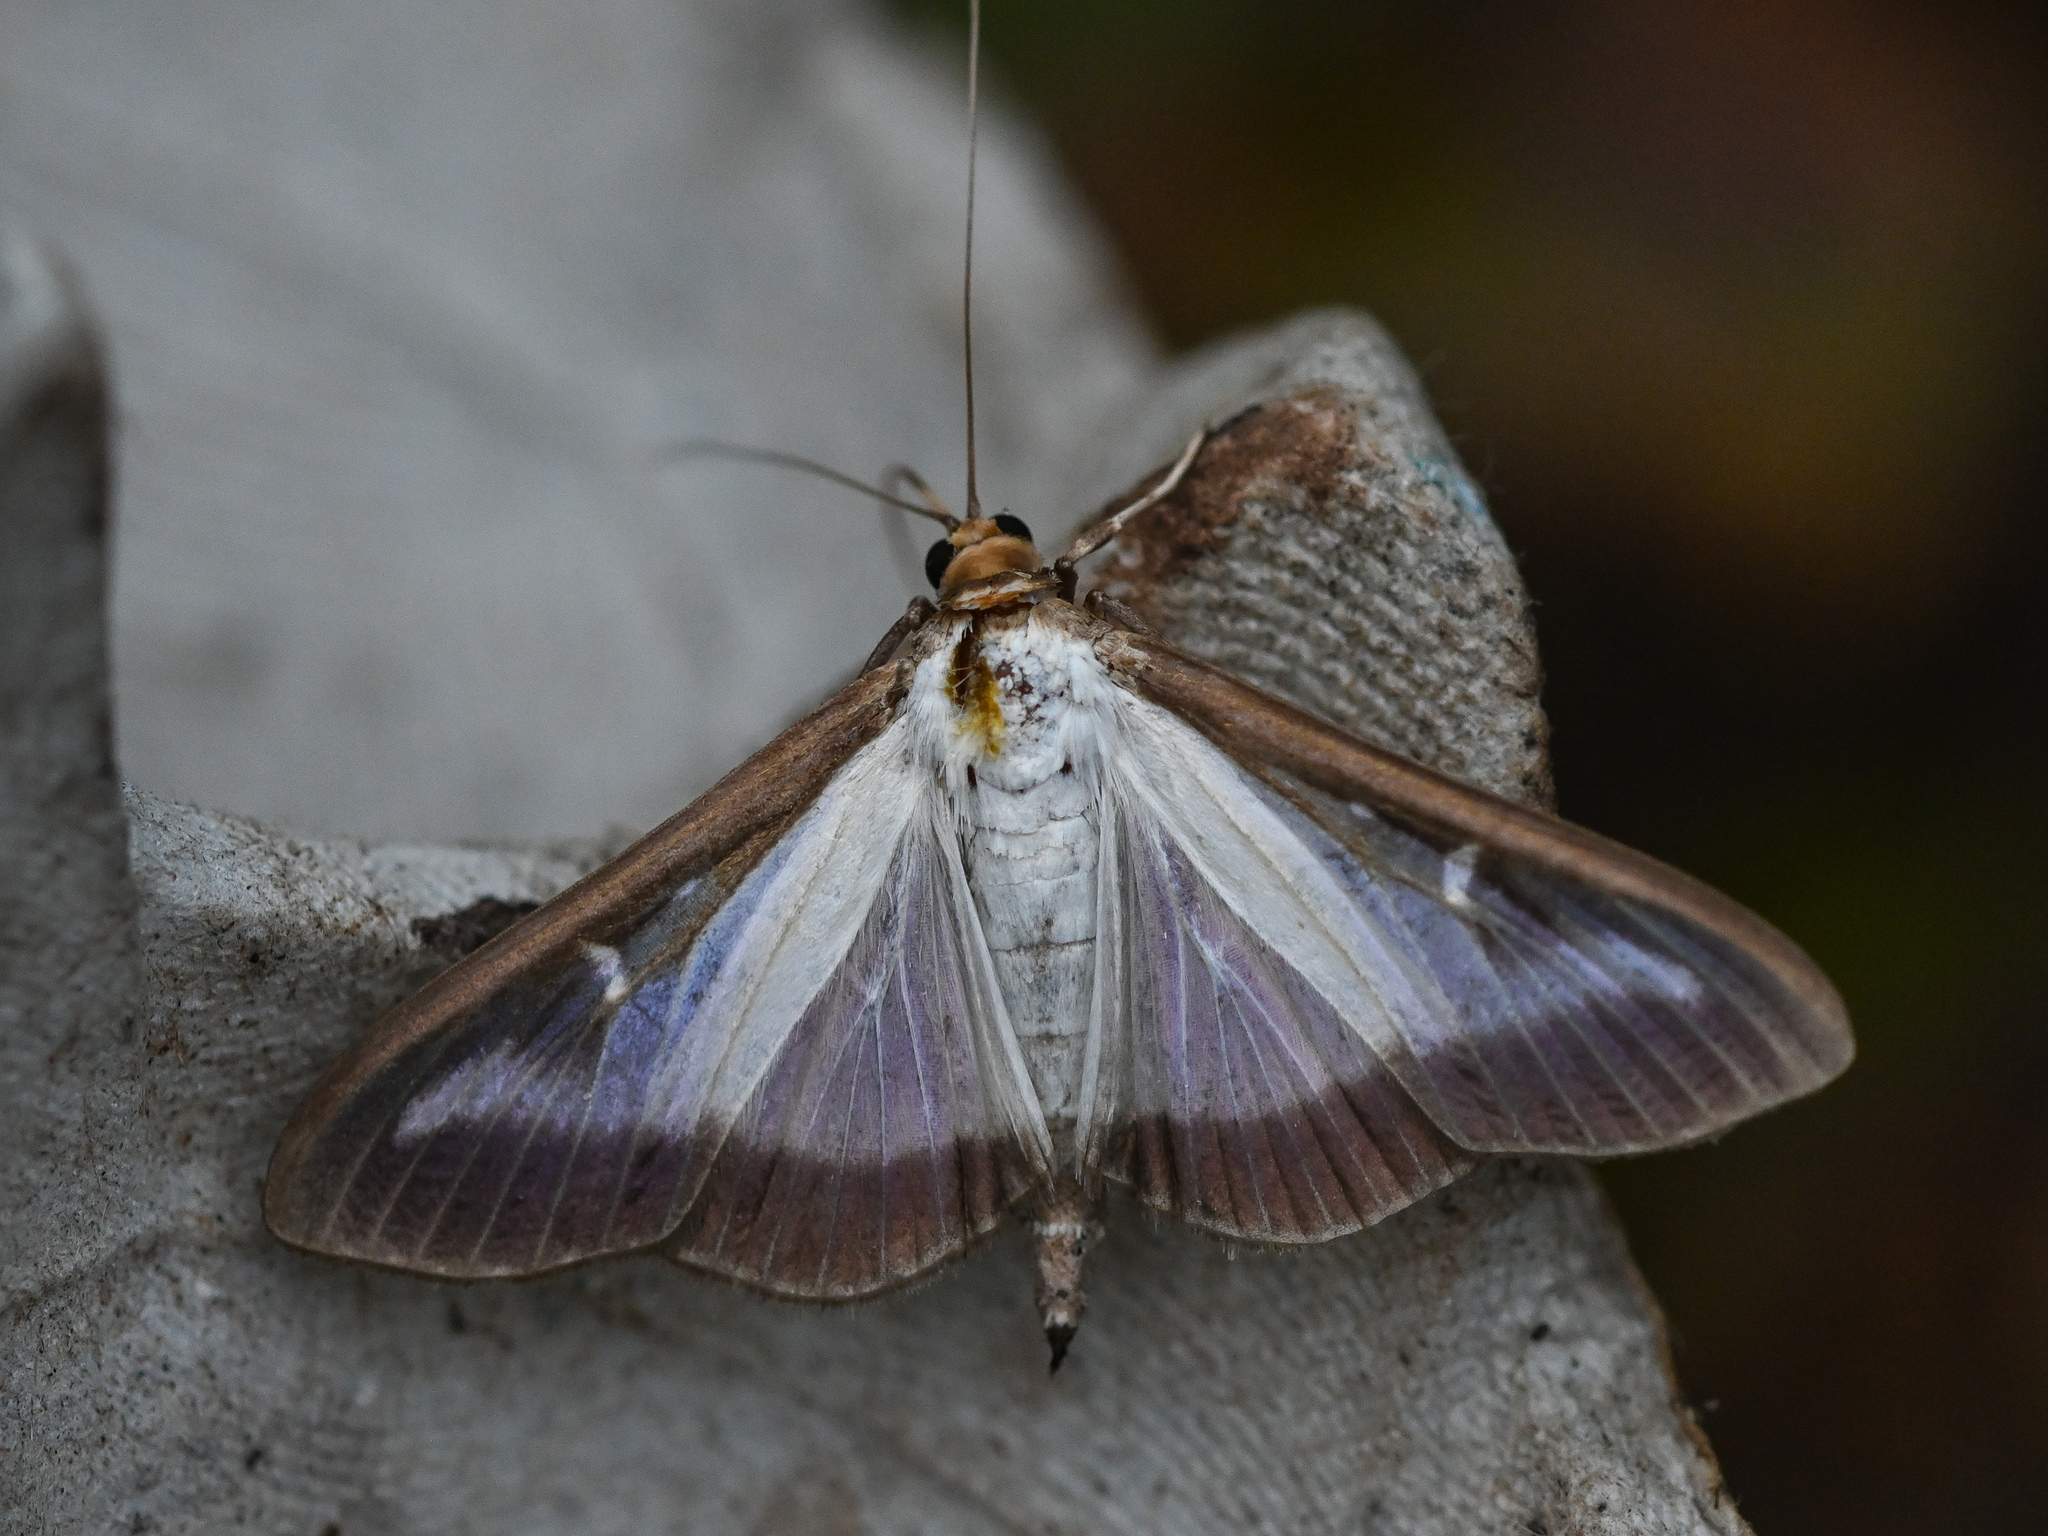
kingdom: Animalia
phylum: Arthropoda
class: Insecta
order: Lepidoptera
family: Crambidae
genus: Cydalima
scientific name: Cydalima perspectalis
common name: Box tree moth
